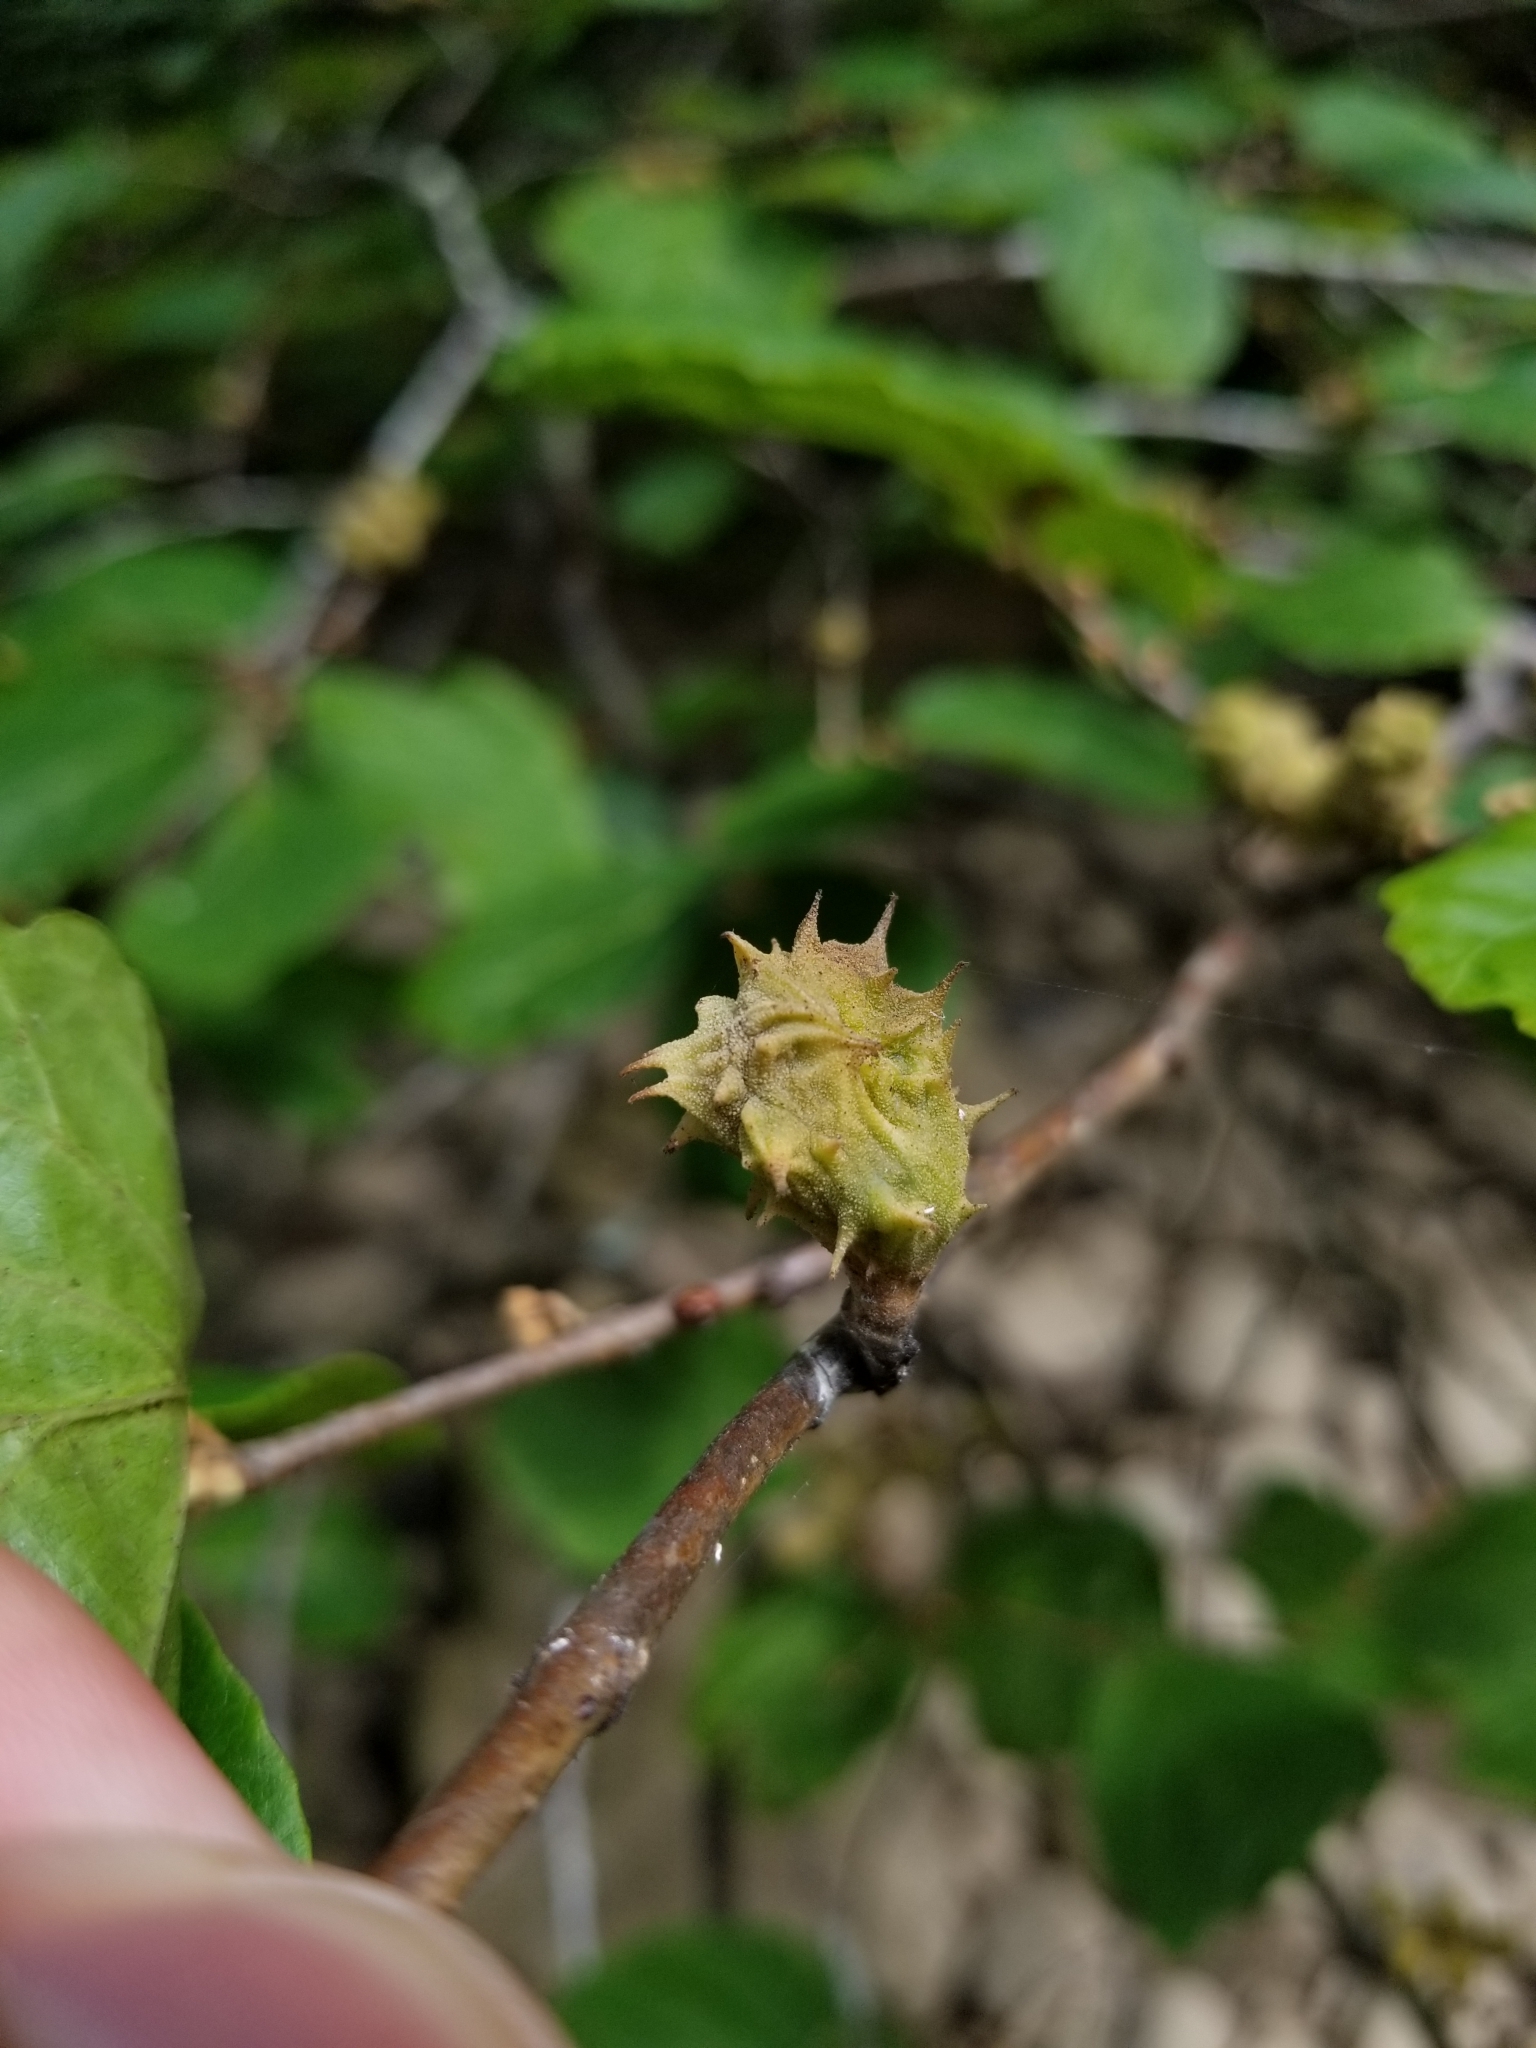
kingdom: Animalia
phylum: Arthropoda
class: Insecta
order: Hemiptera
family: Aphididae
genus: Hamamelistes
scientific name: Hamamelistes spinosus
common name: Witch hazel gall aphid
